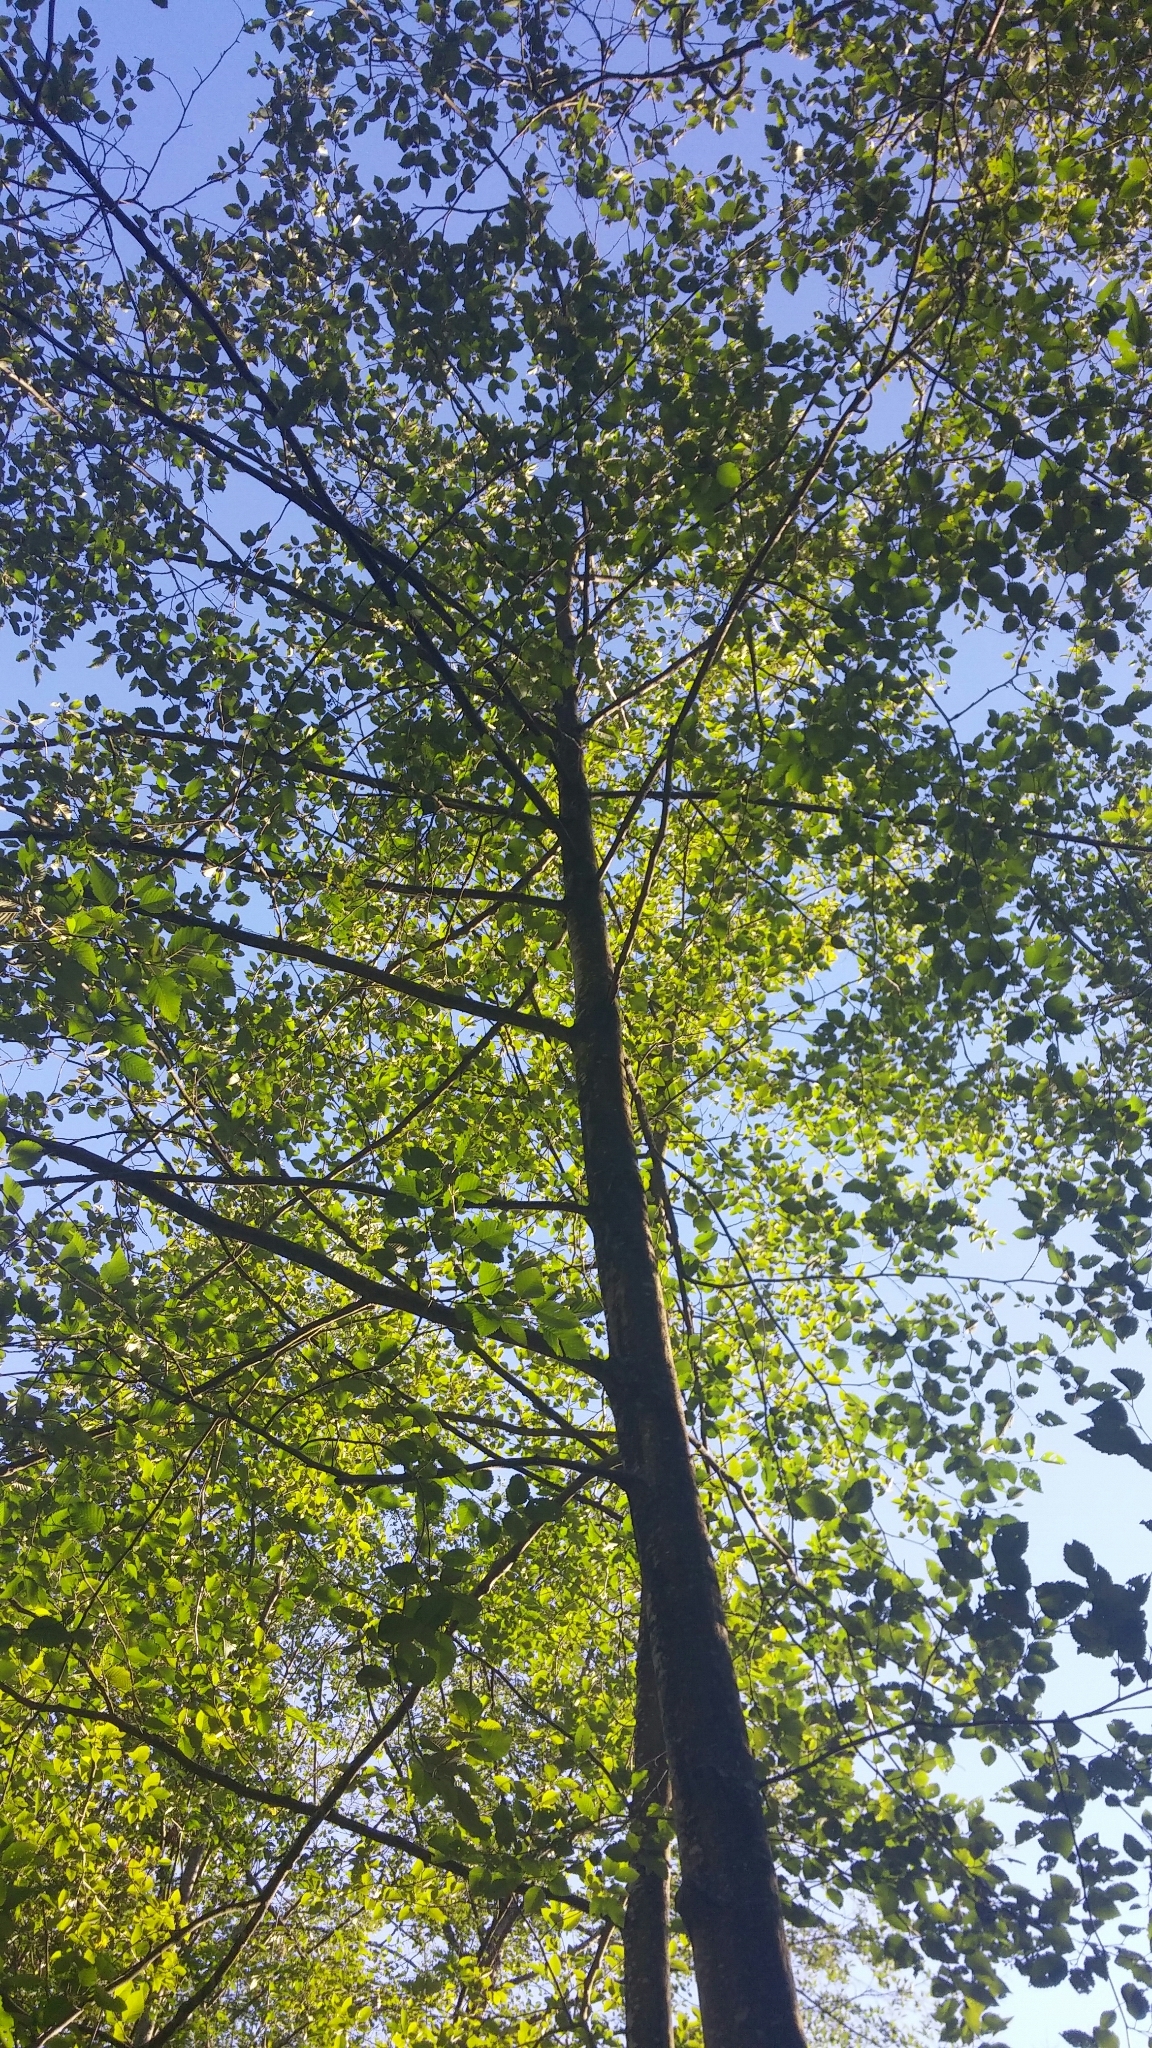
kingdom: Plantae
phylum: Tracheophyta
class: Magnoliopsida
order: Fagales
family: Betulaceae
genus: Alnus
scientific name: Alnus rubra
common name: Red alder
